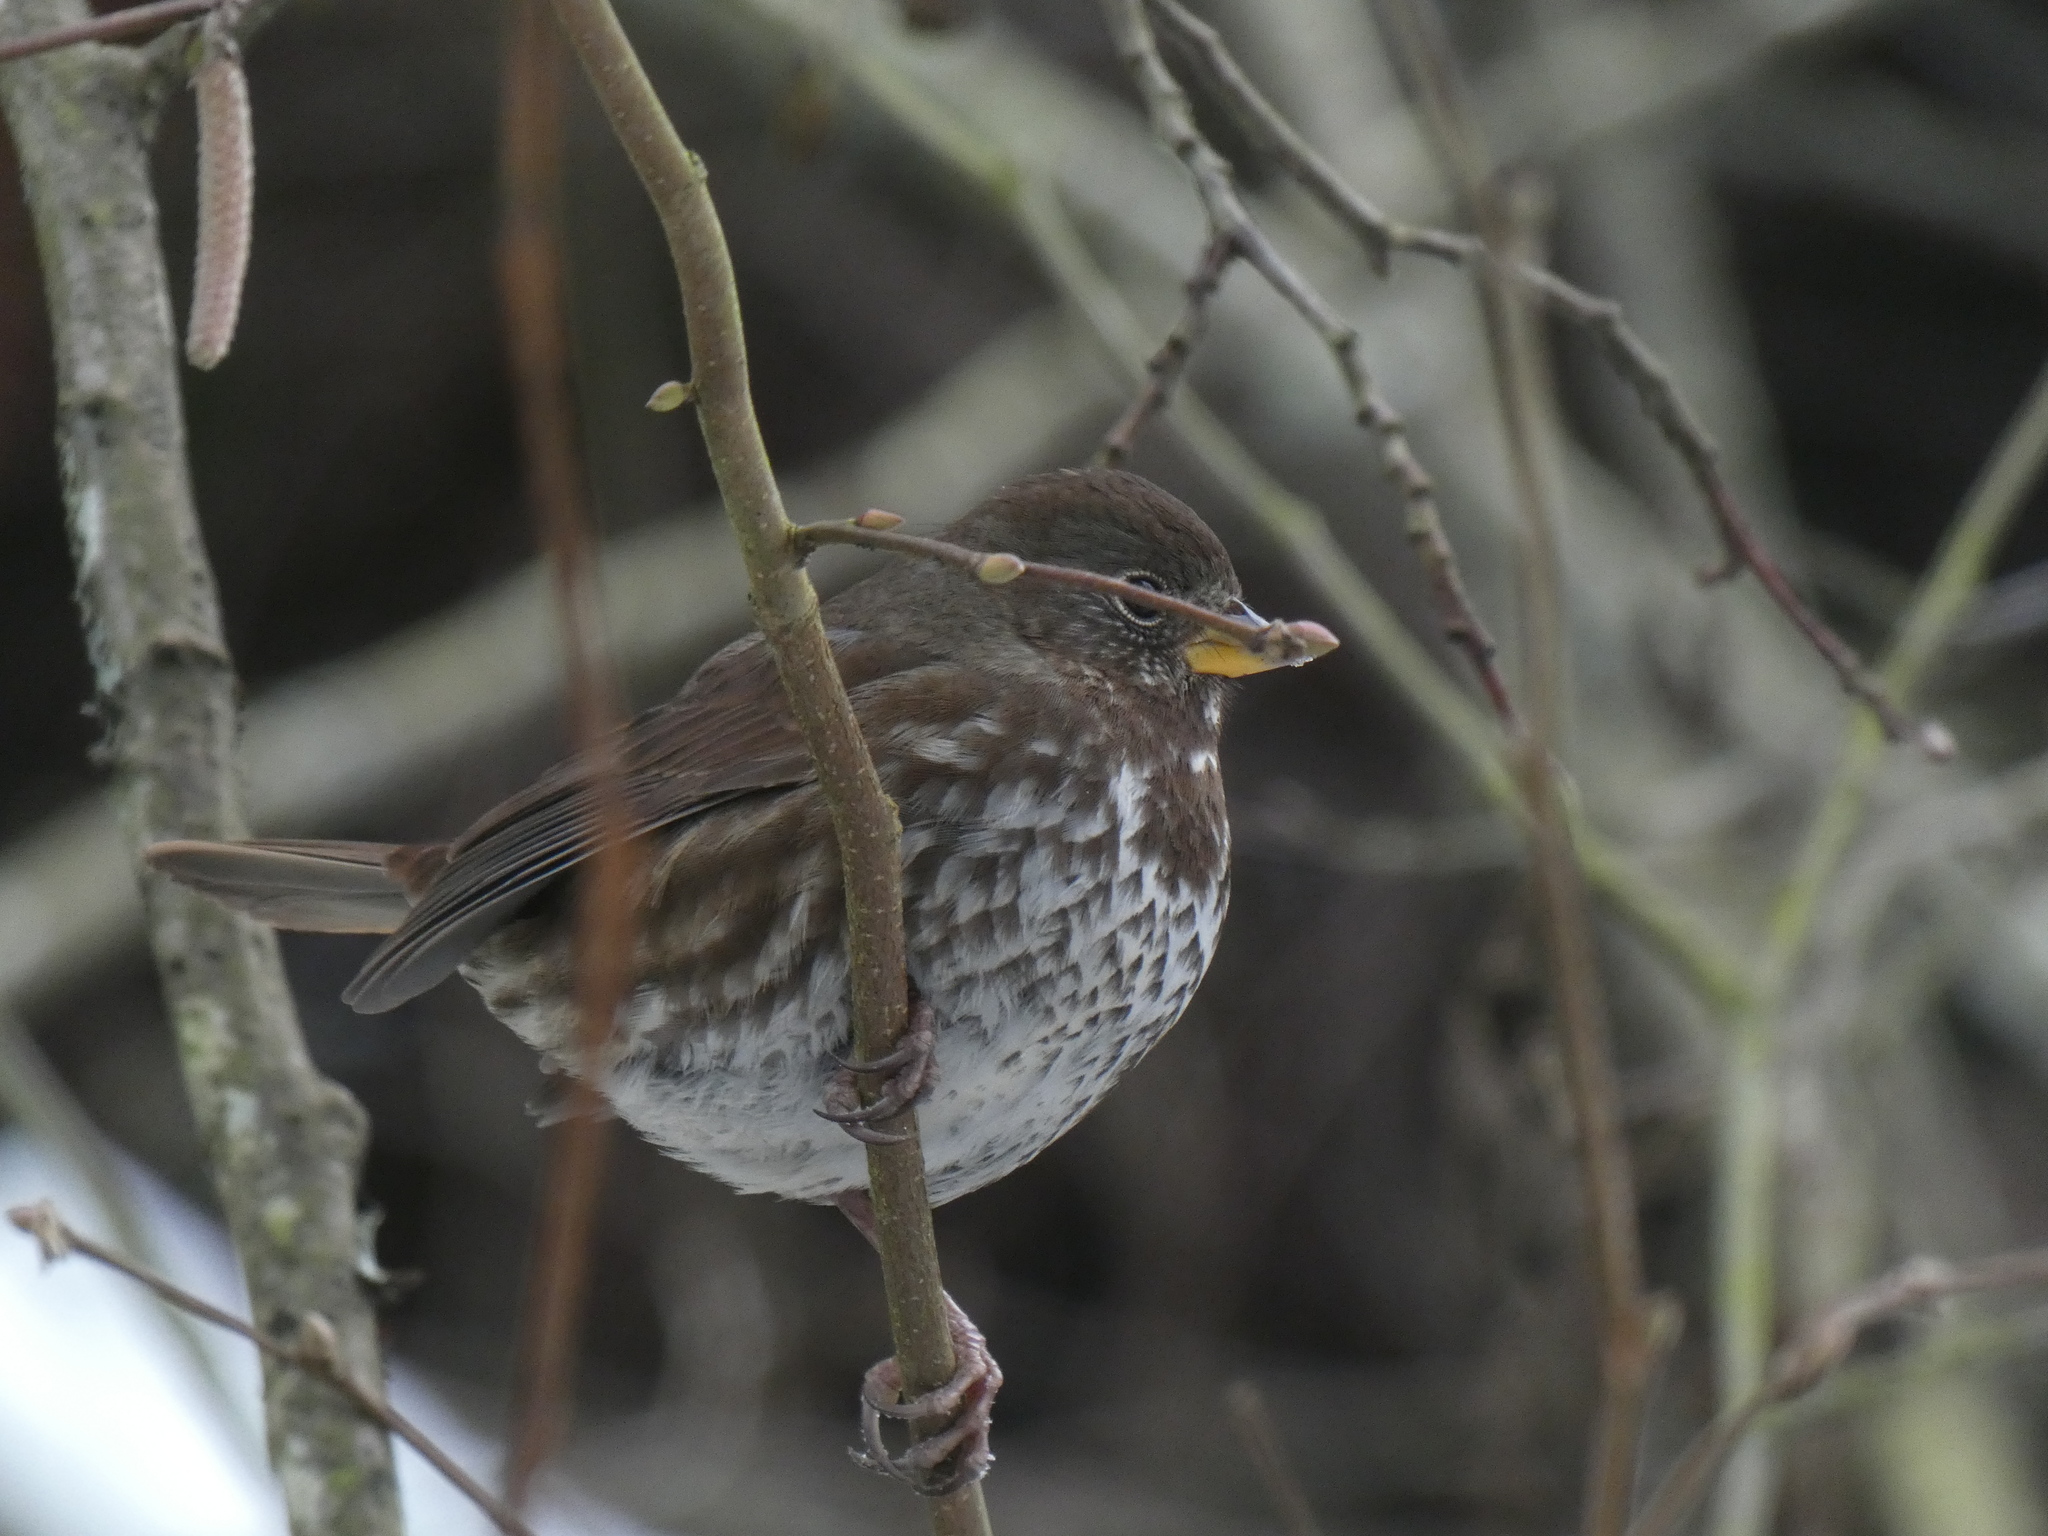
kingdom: Animalia
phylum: Chordata
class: Aves
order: Passeriformes
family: Passerellidae
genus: Passerella
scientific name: Passerella iliaca
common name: Fox sparrow
